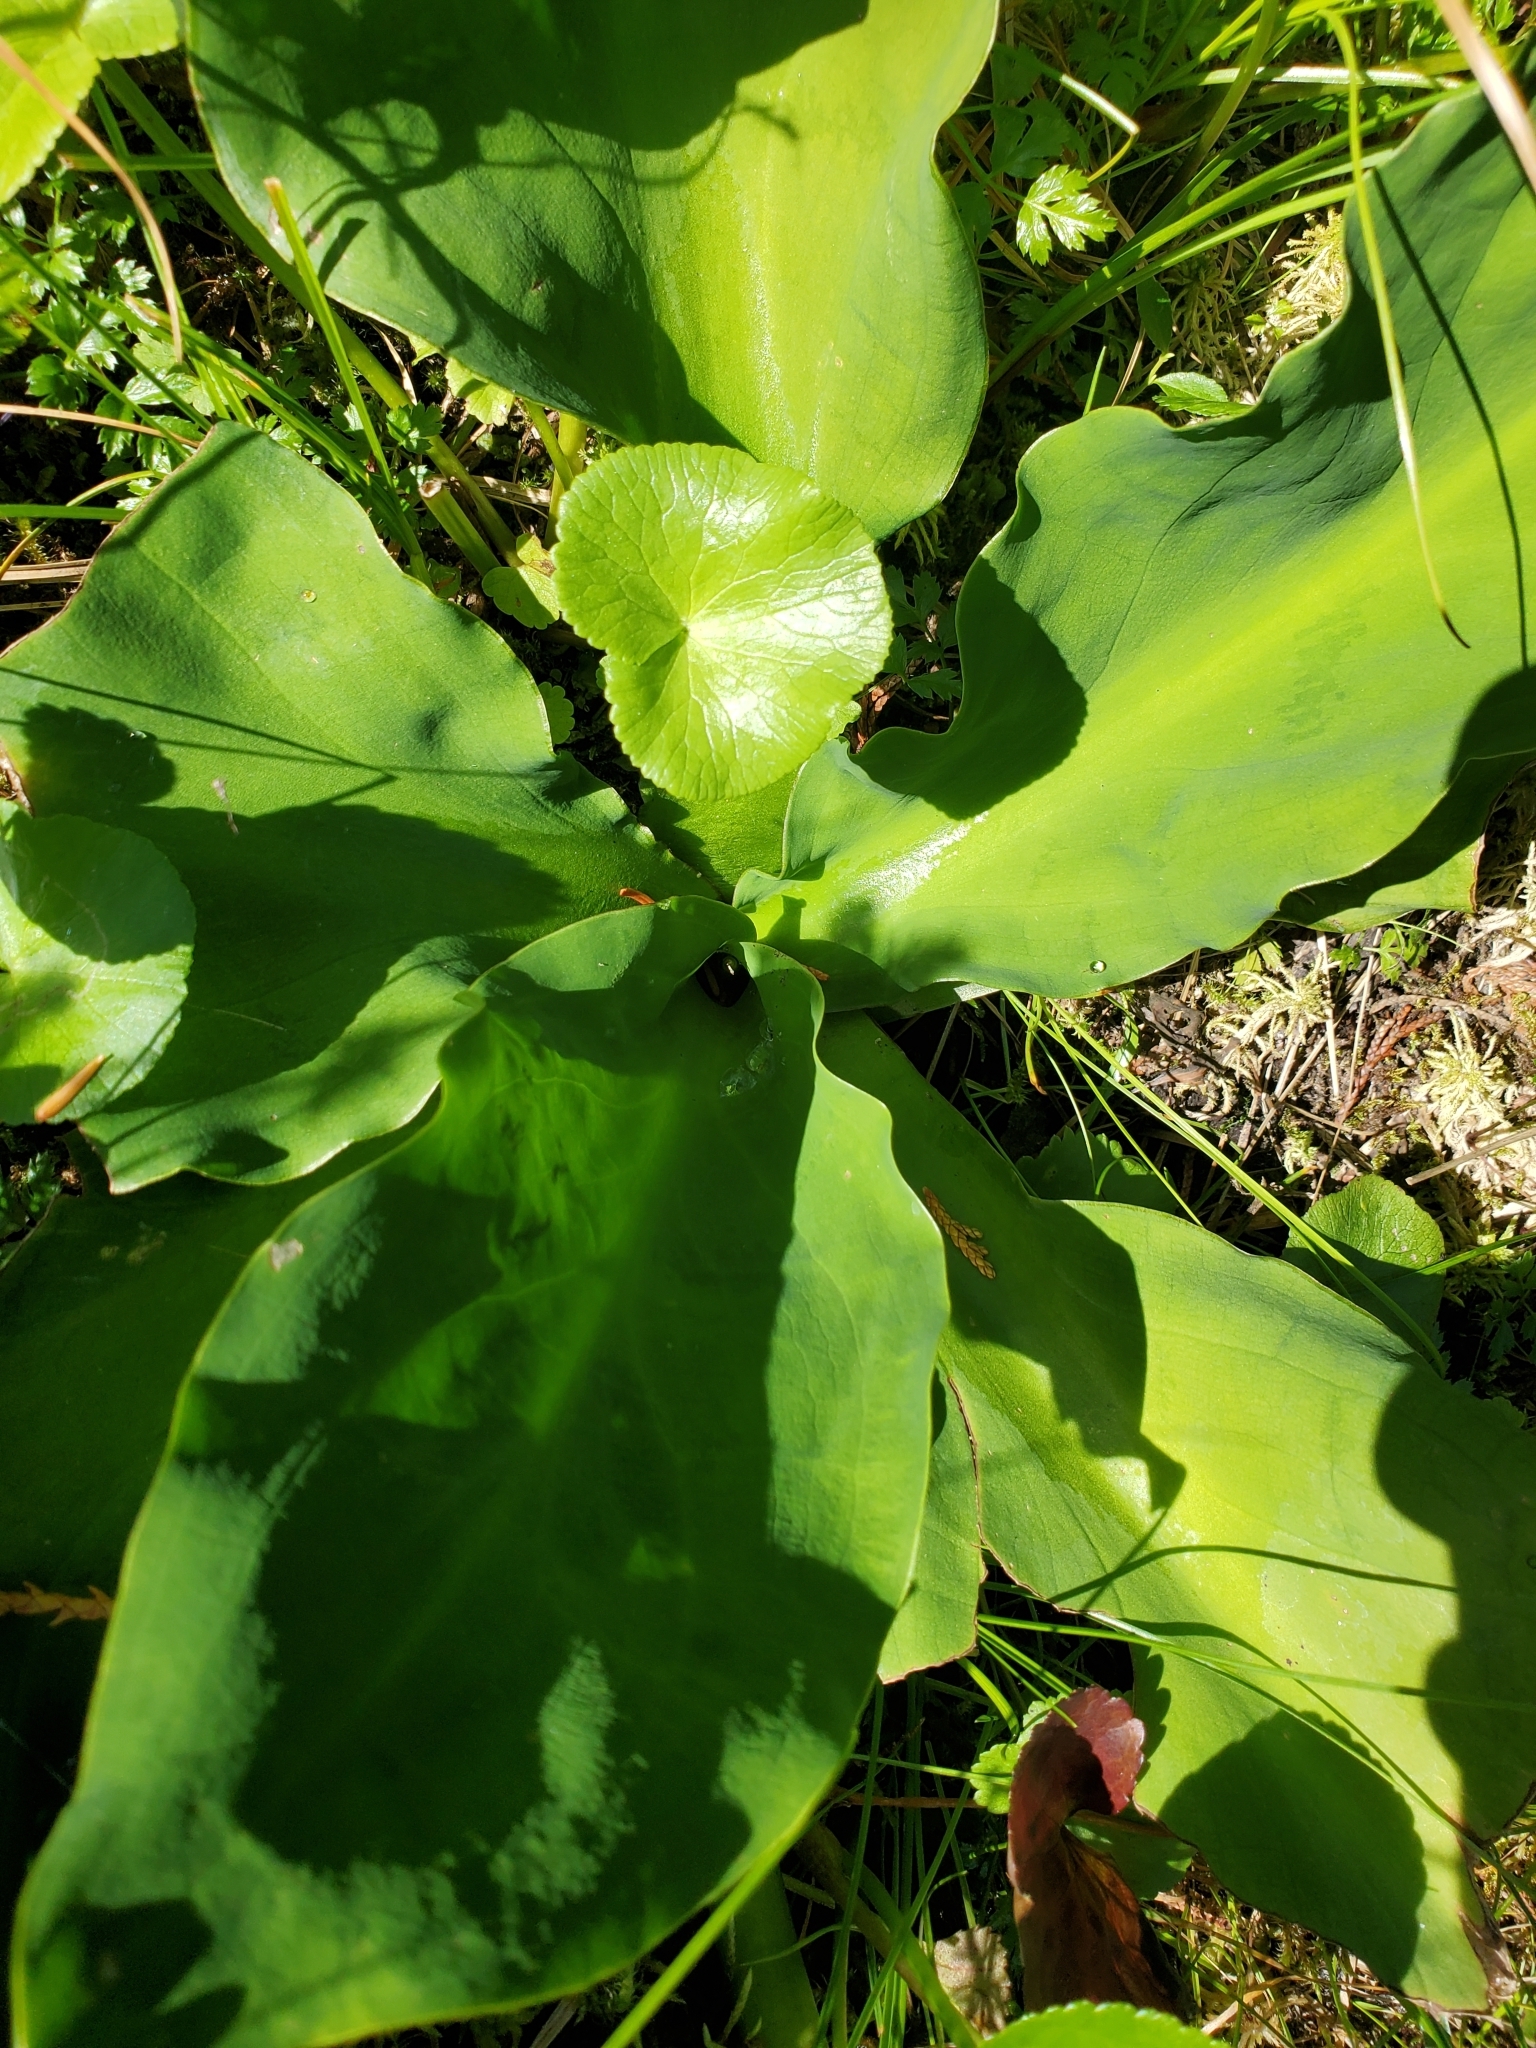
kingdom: Plantae
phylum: Tracheophyta
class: Liliopsida
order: Alismatales
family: Araceae
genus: Lysichiton
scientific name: Lysichiton americanus
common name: American skunk cabbage
